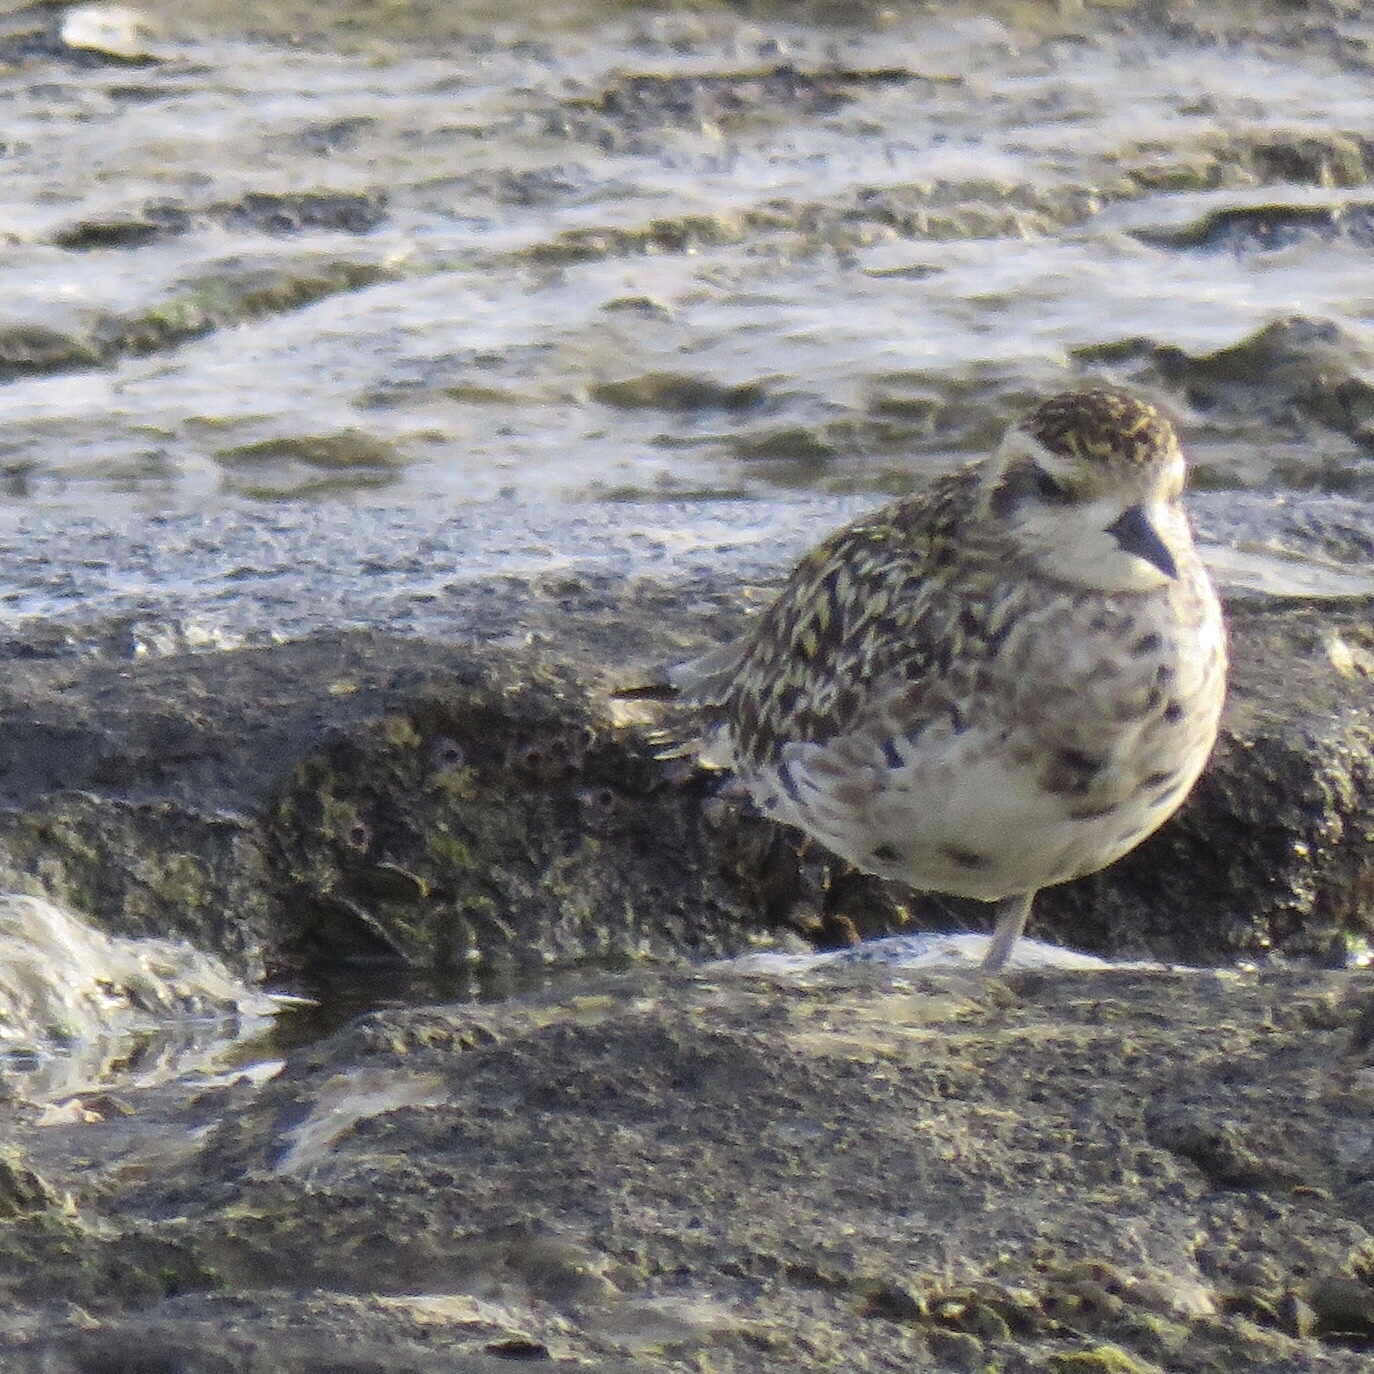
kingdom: Animalia
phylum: Chordata
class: Aves
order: Charadriiformes
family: Charadriidae
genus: Pluvialis
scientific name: Pluvialis fulva
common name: Pacific golden plover
